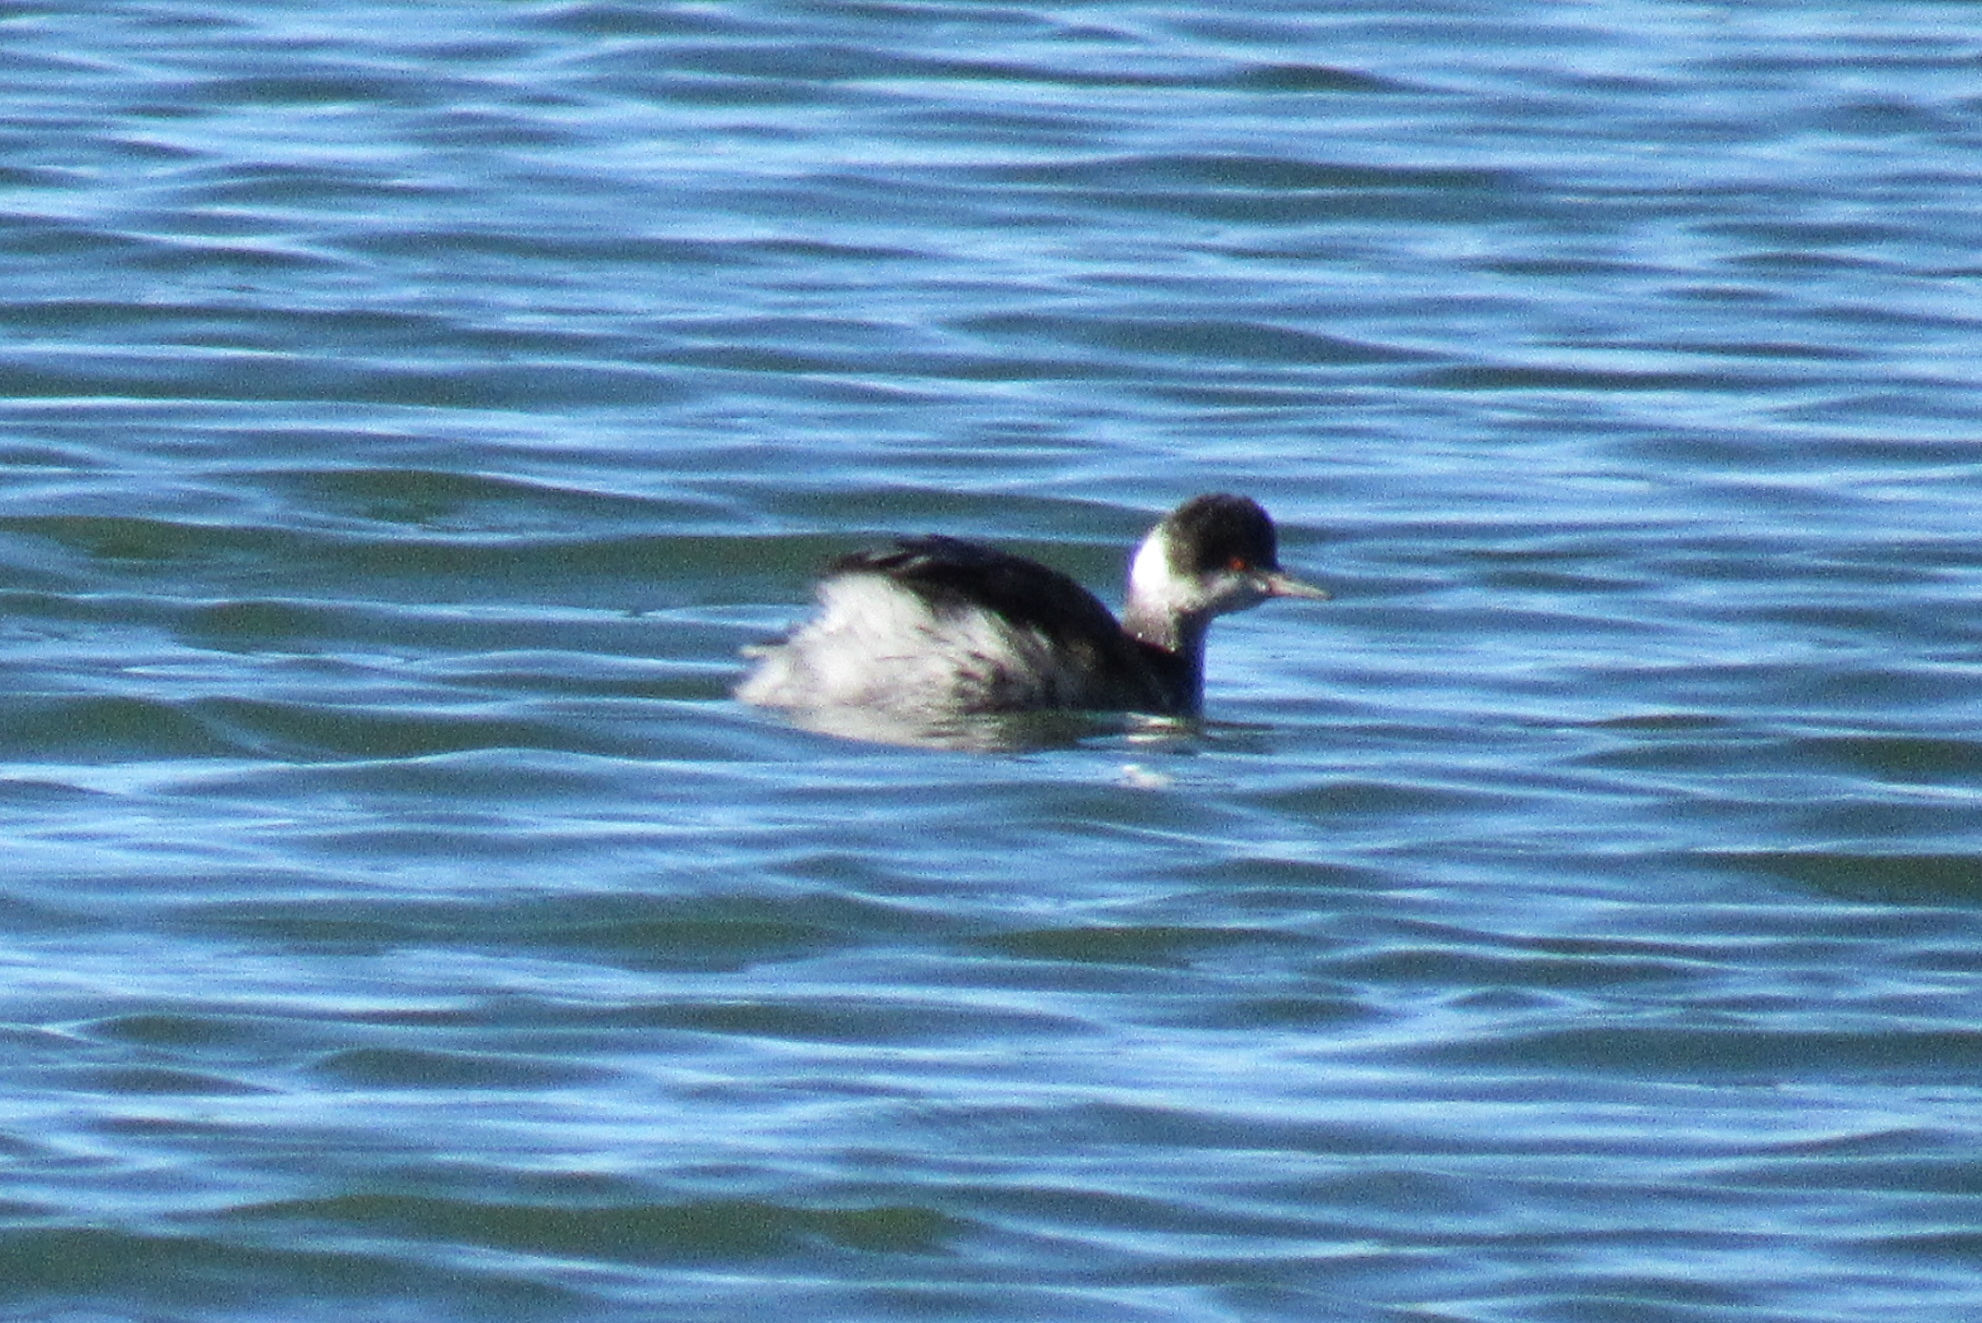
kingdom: Animalia
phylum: Chordata
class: Aves
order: Podicipediformes
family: Podicipedidae
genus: Podiceps
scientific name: Podiceps nigricollis
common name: Black-necked grebe
